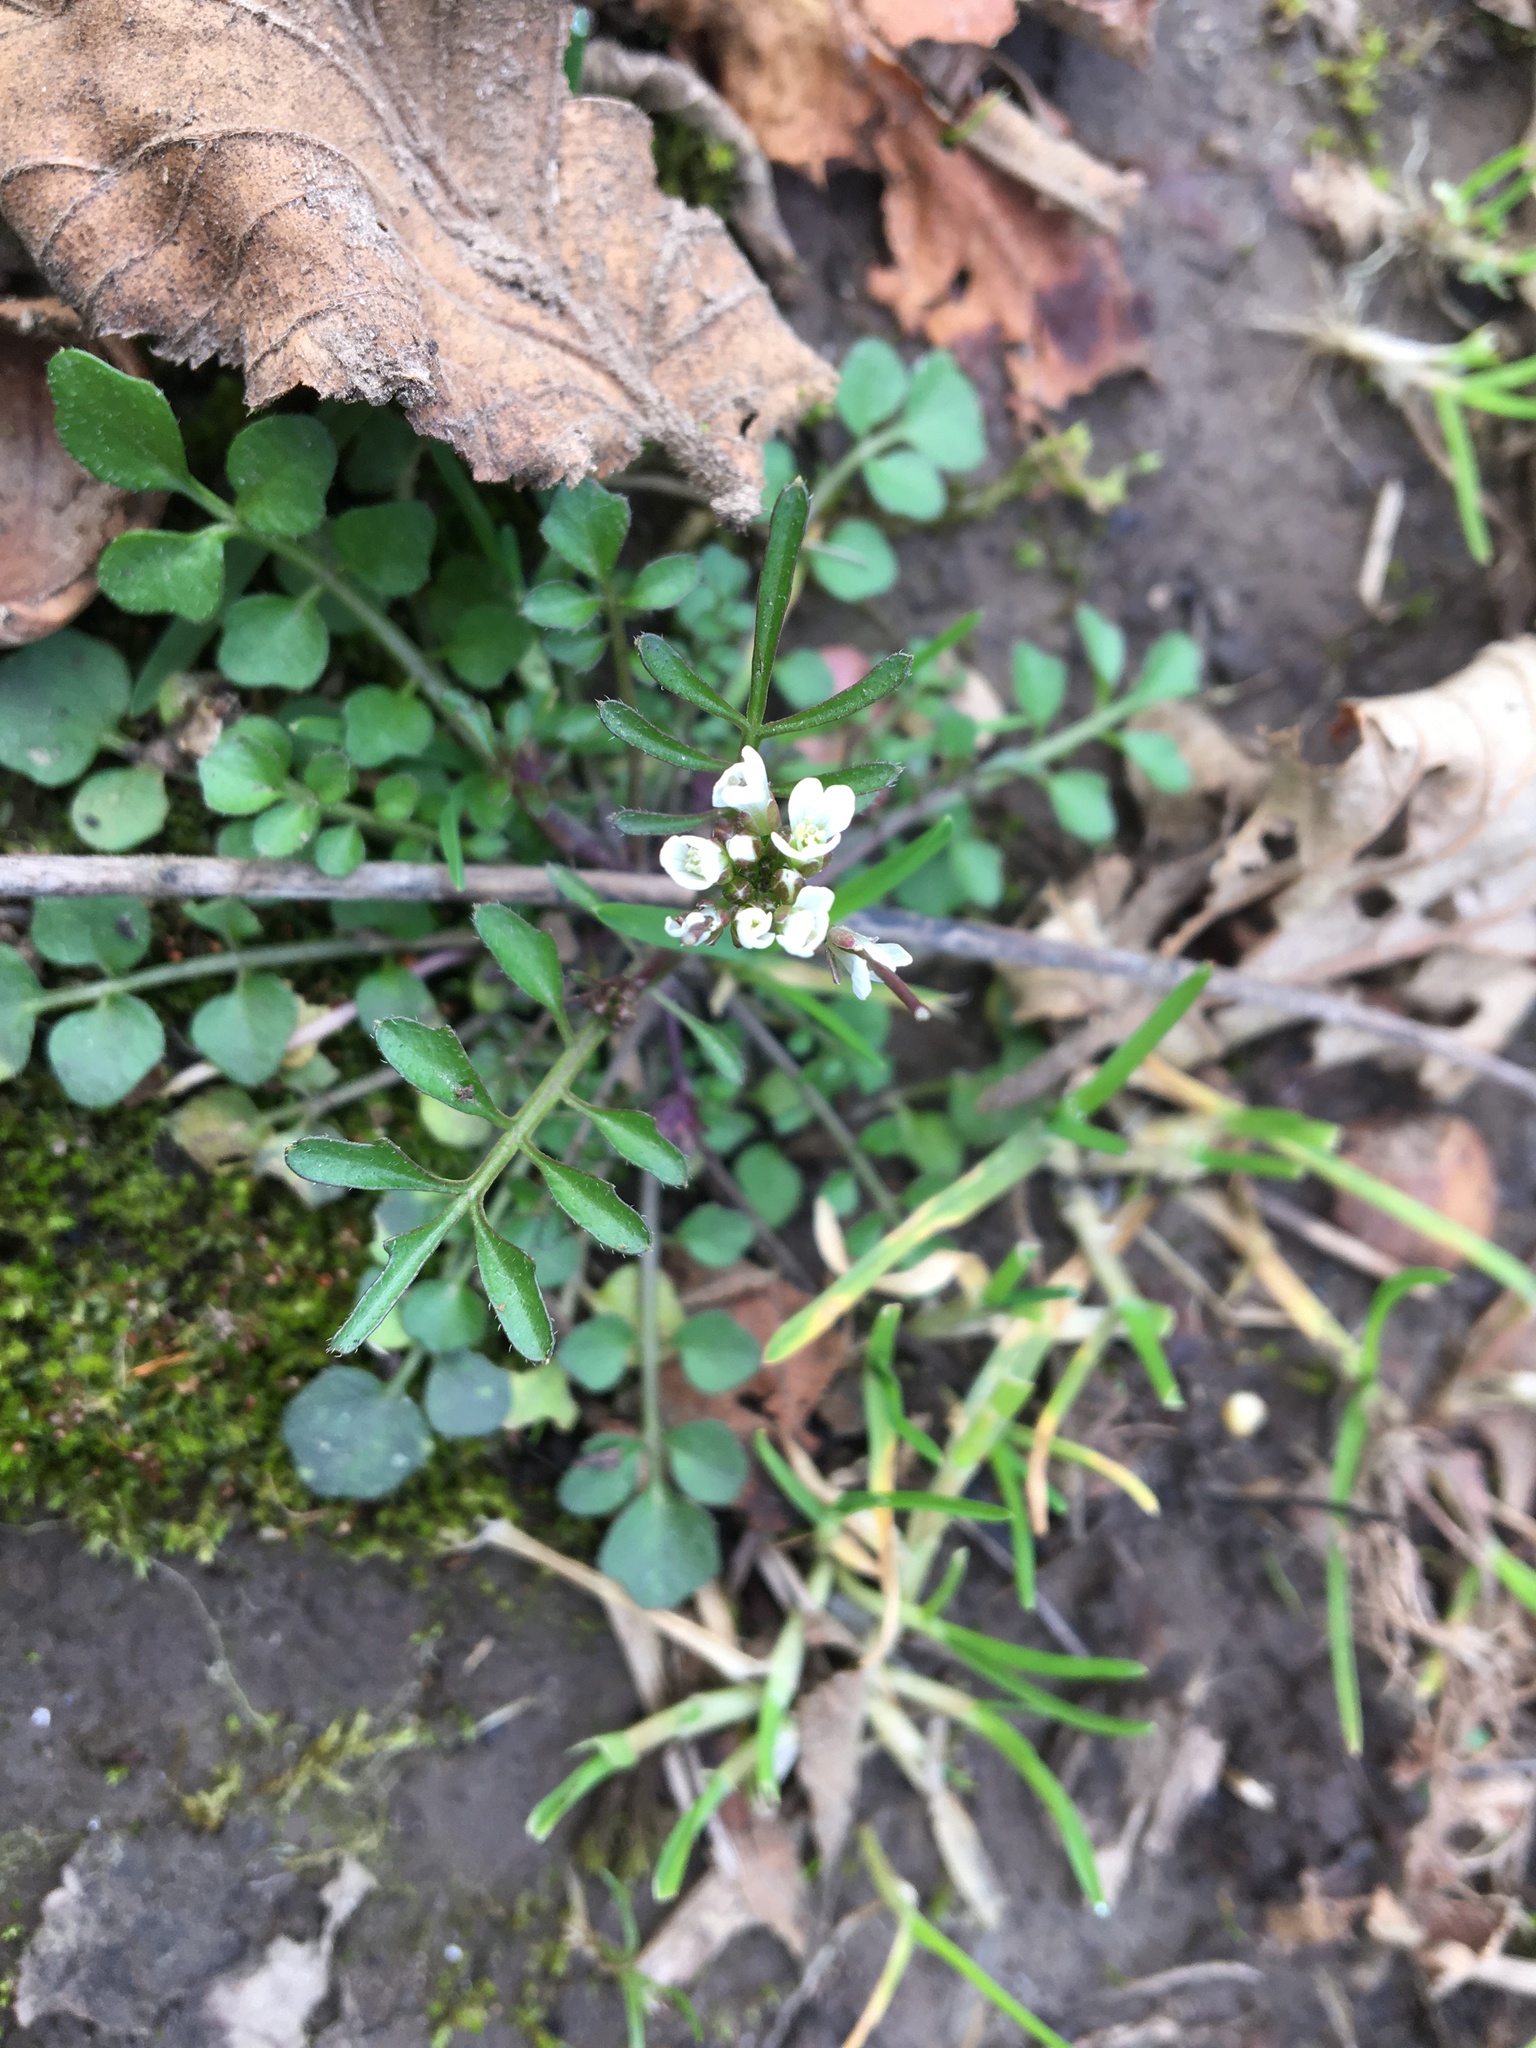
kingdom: Plantae
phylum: Tracheophyta
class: Magnoliopsida
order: Brassicales
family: Brassicaceae
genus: Cardamine
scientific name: Cardamine hirsuta
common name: Hairy bittercress
